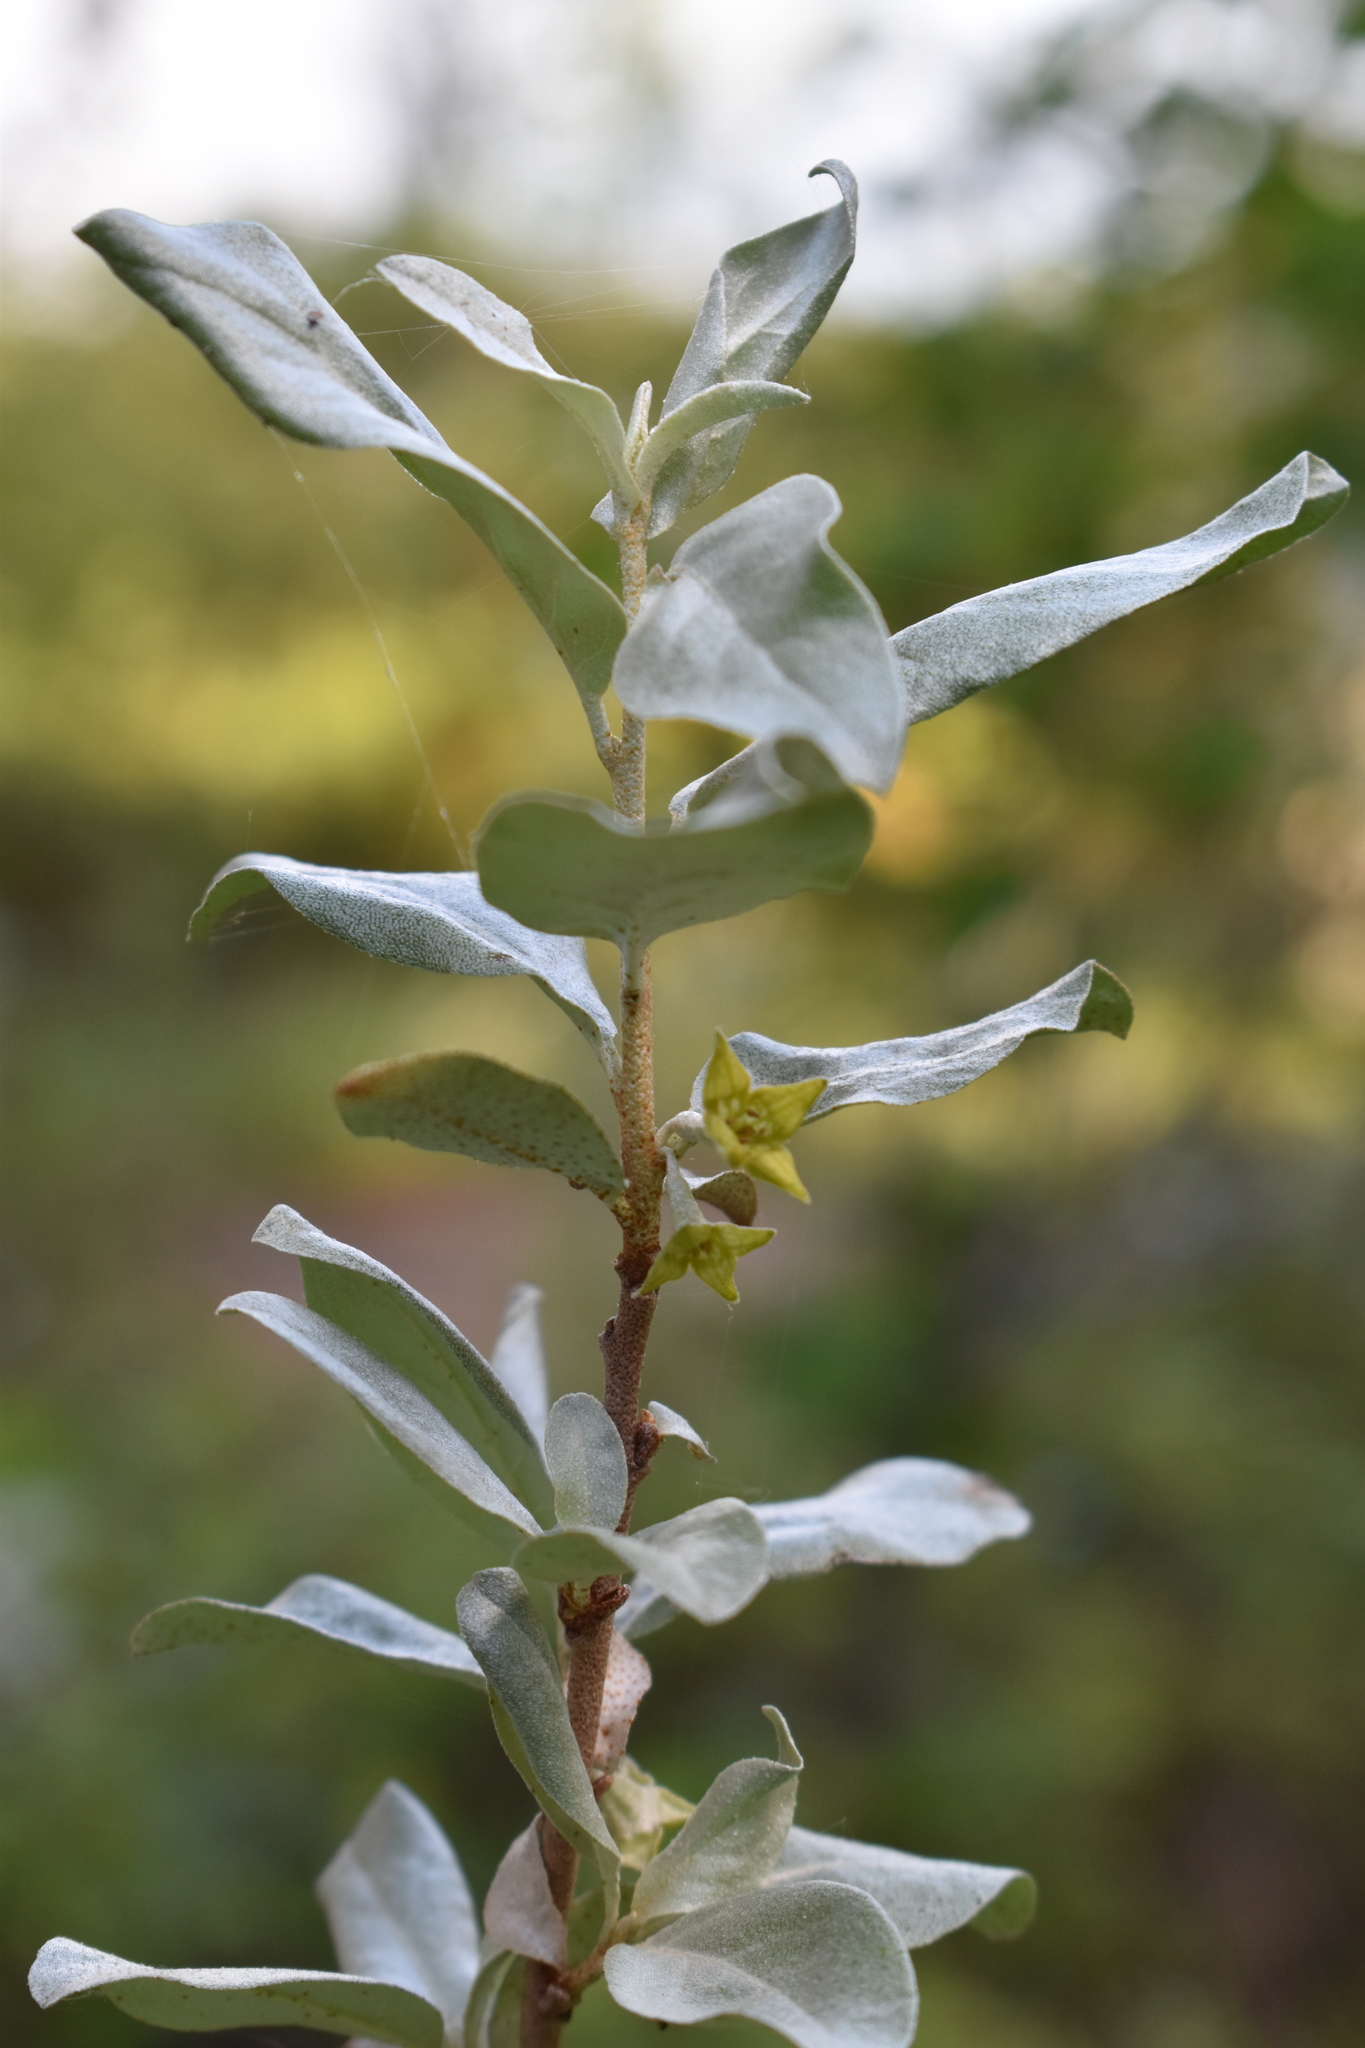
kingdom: Plantae
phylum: Tracheophyta
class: Magnoliopsida
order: Rosales
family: Elaeagnaceae
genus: Elaeagnus
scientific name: Elaeagnus commutata
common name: Silverberry
